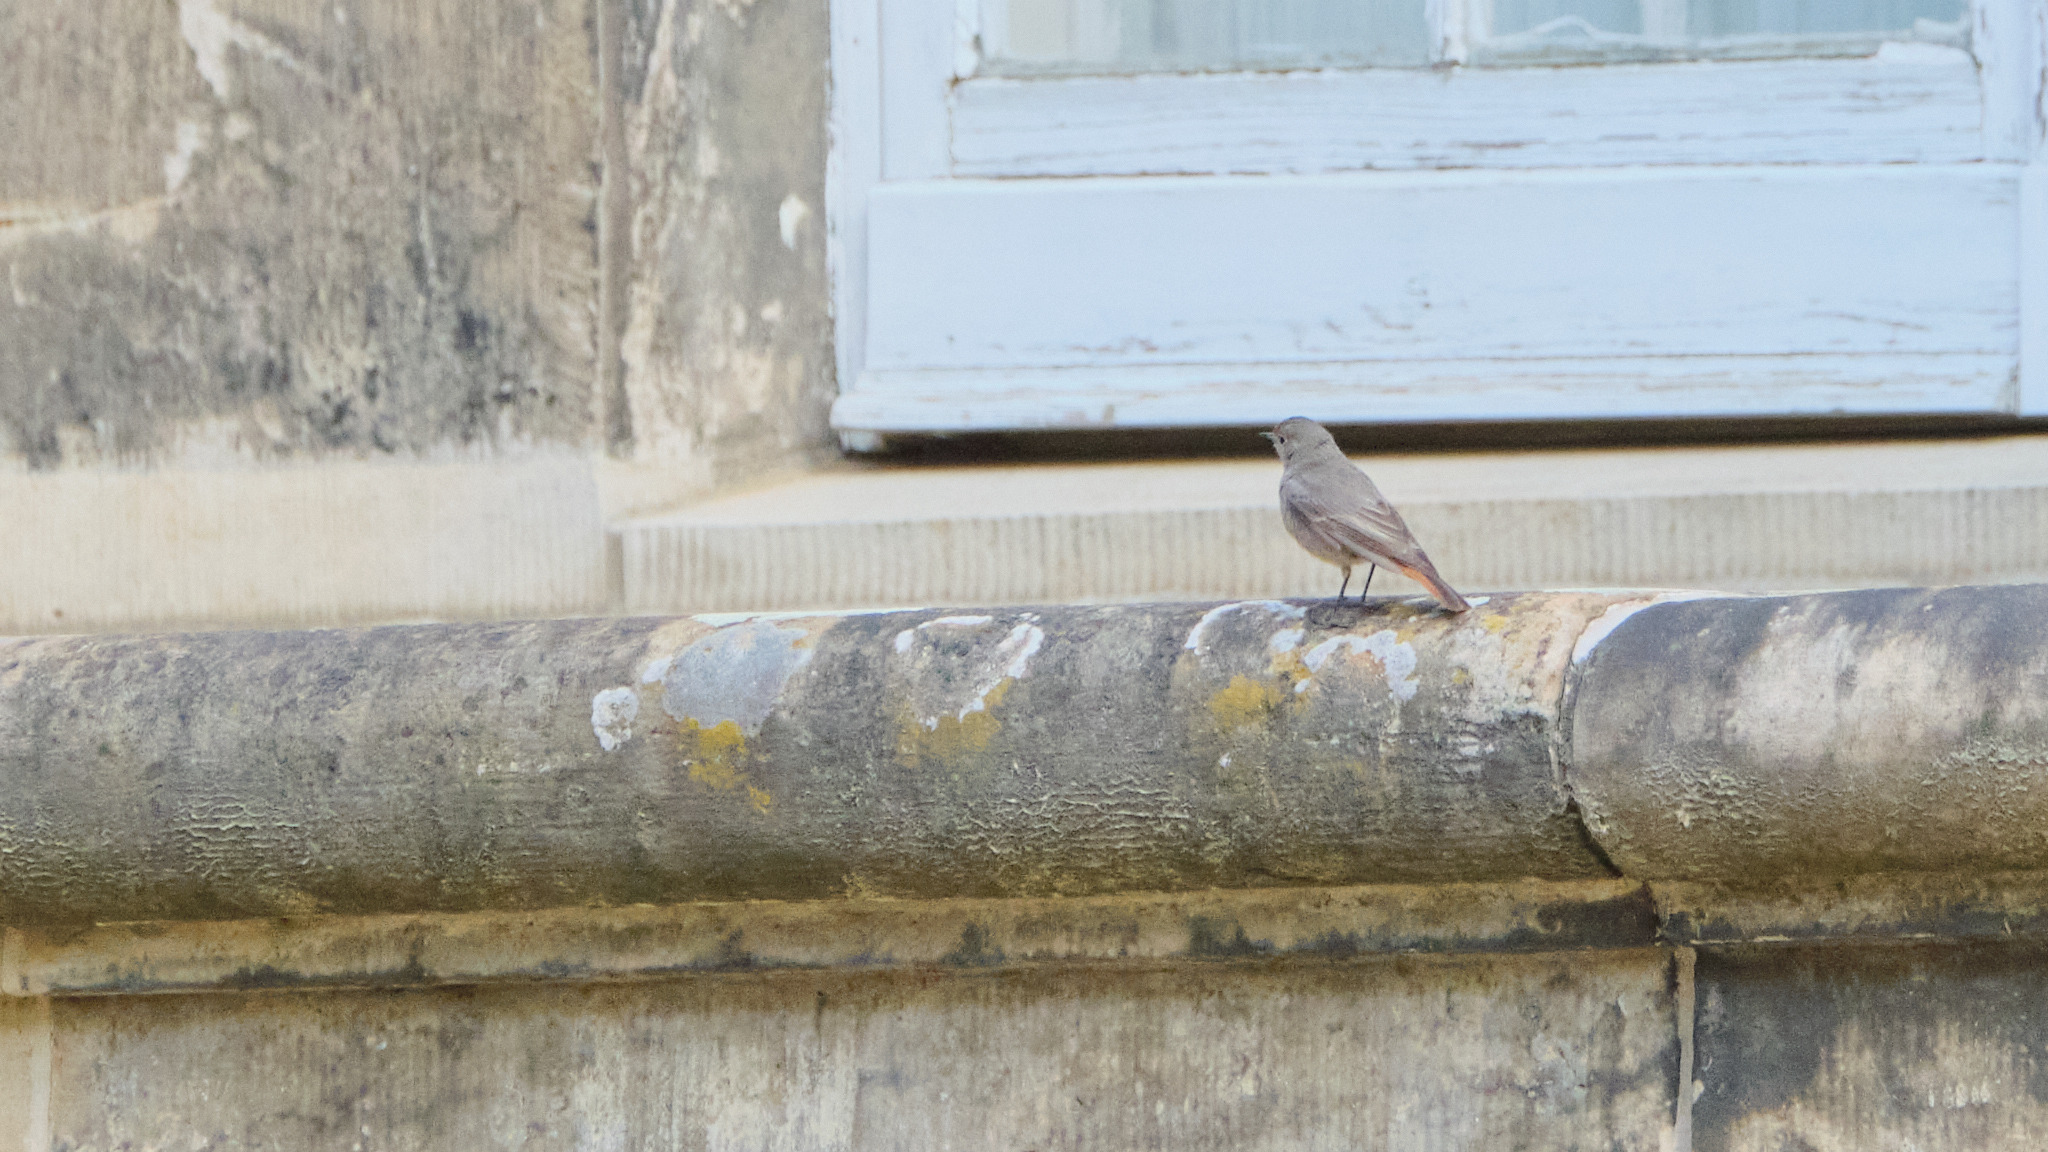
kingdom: Animalia
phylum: Chordata
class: Aves
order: Passeriformes
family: Muscicapidae
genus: Phoenicurus
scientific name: Phoenicurus ochruros
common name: Black redstart
